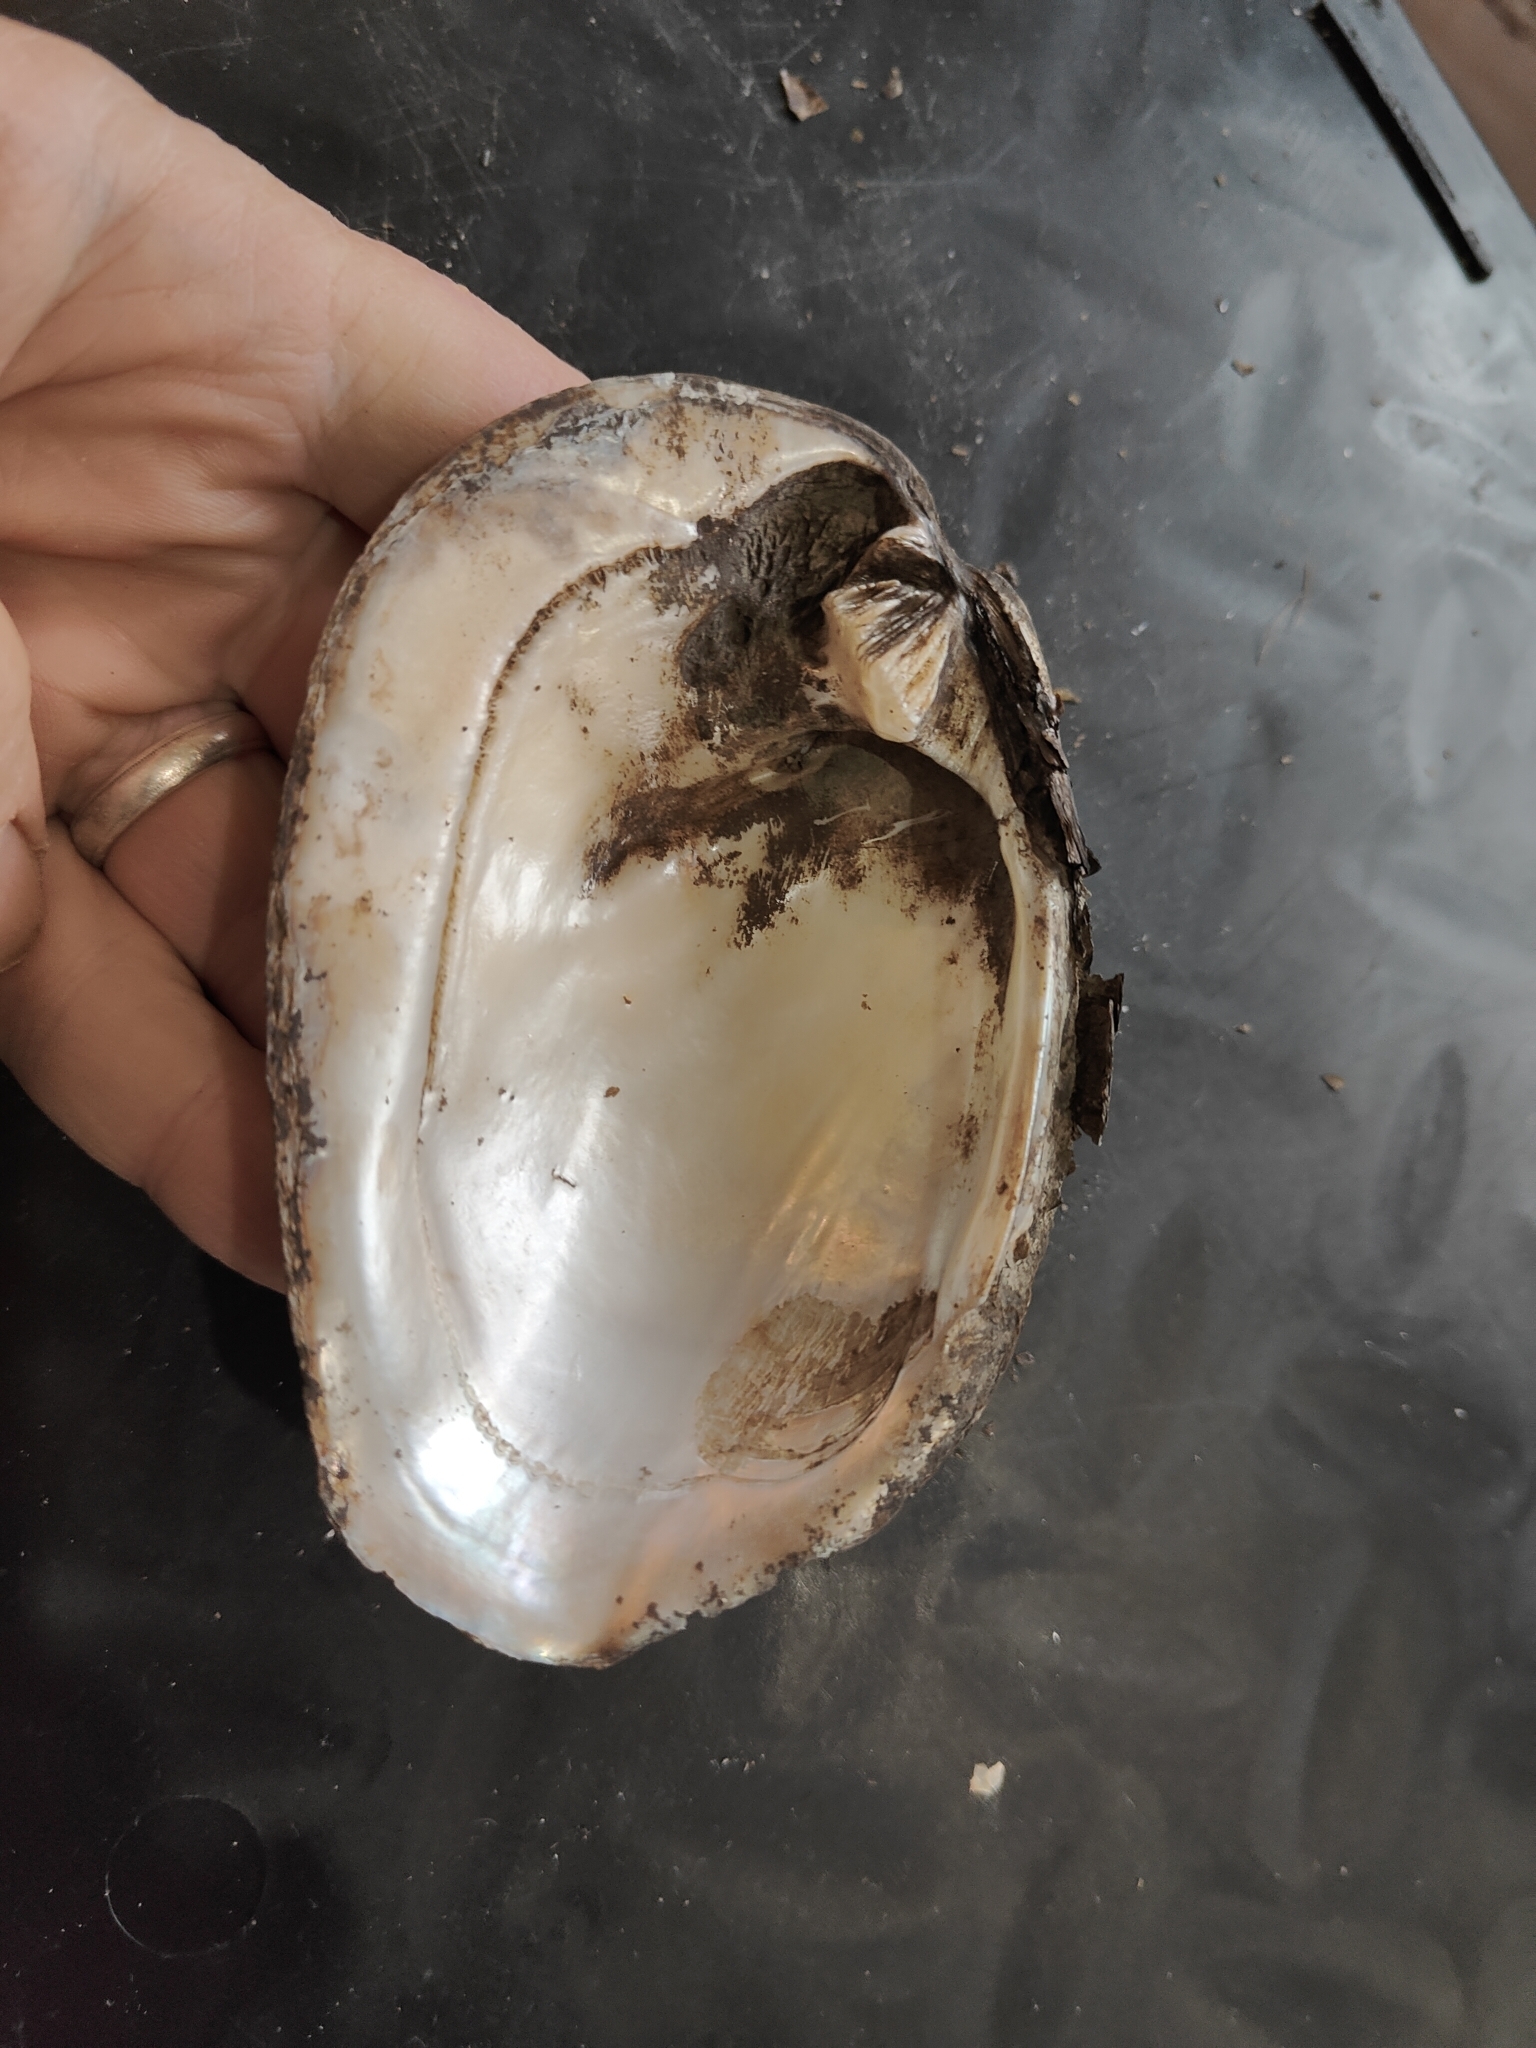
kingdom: Animalia
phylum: Mollusca
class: Bivalvia
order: Unionida
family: Unionidae
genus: Amblema
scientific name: Amblema plicata
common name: Threeridge
